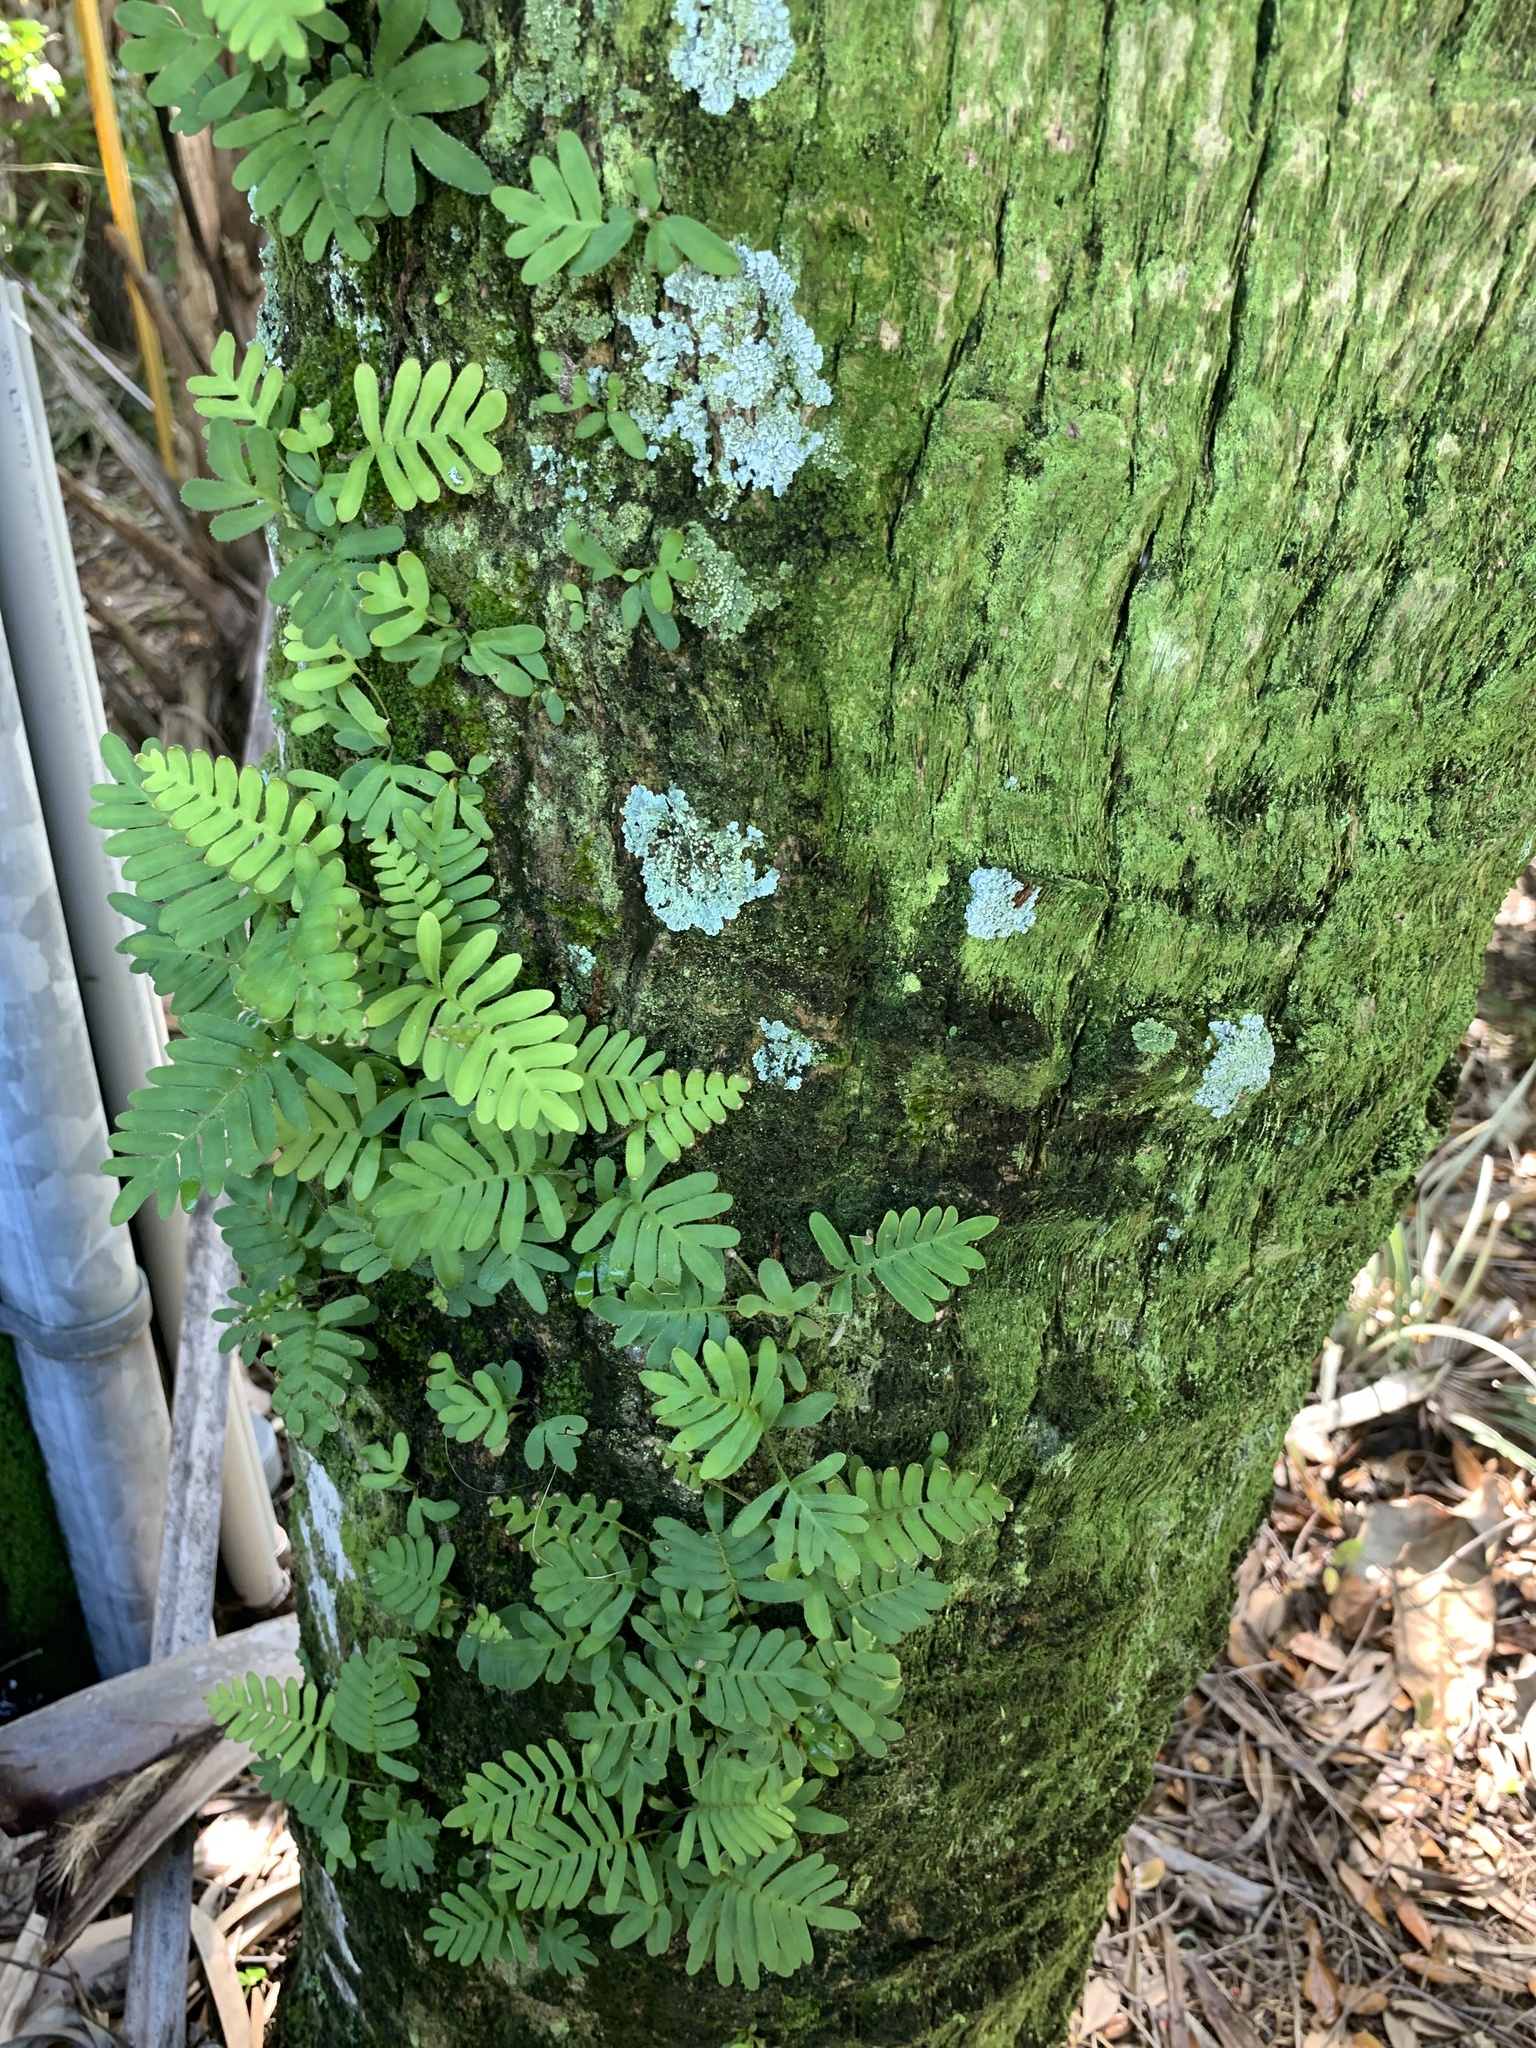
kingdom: Plantae
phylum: Tracheophyta
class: Polypodiopsida
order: Polypodiales
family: Polypodiaceae
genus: Pleopeltis
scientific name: Pleopeltis michauxiana
